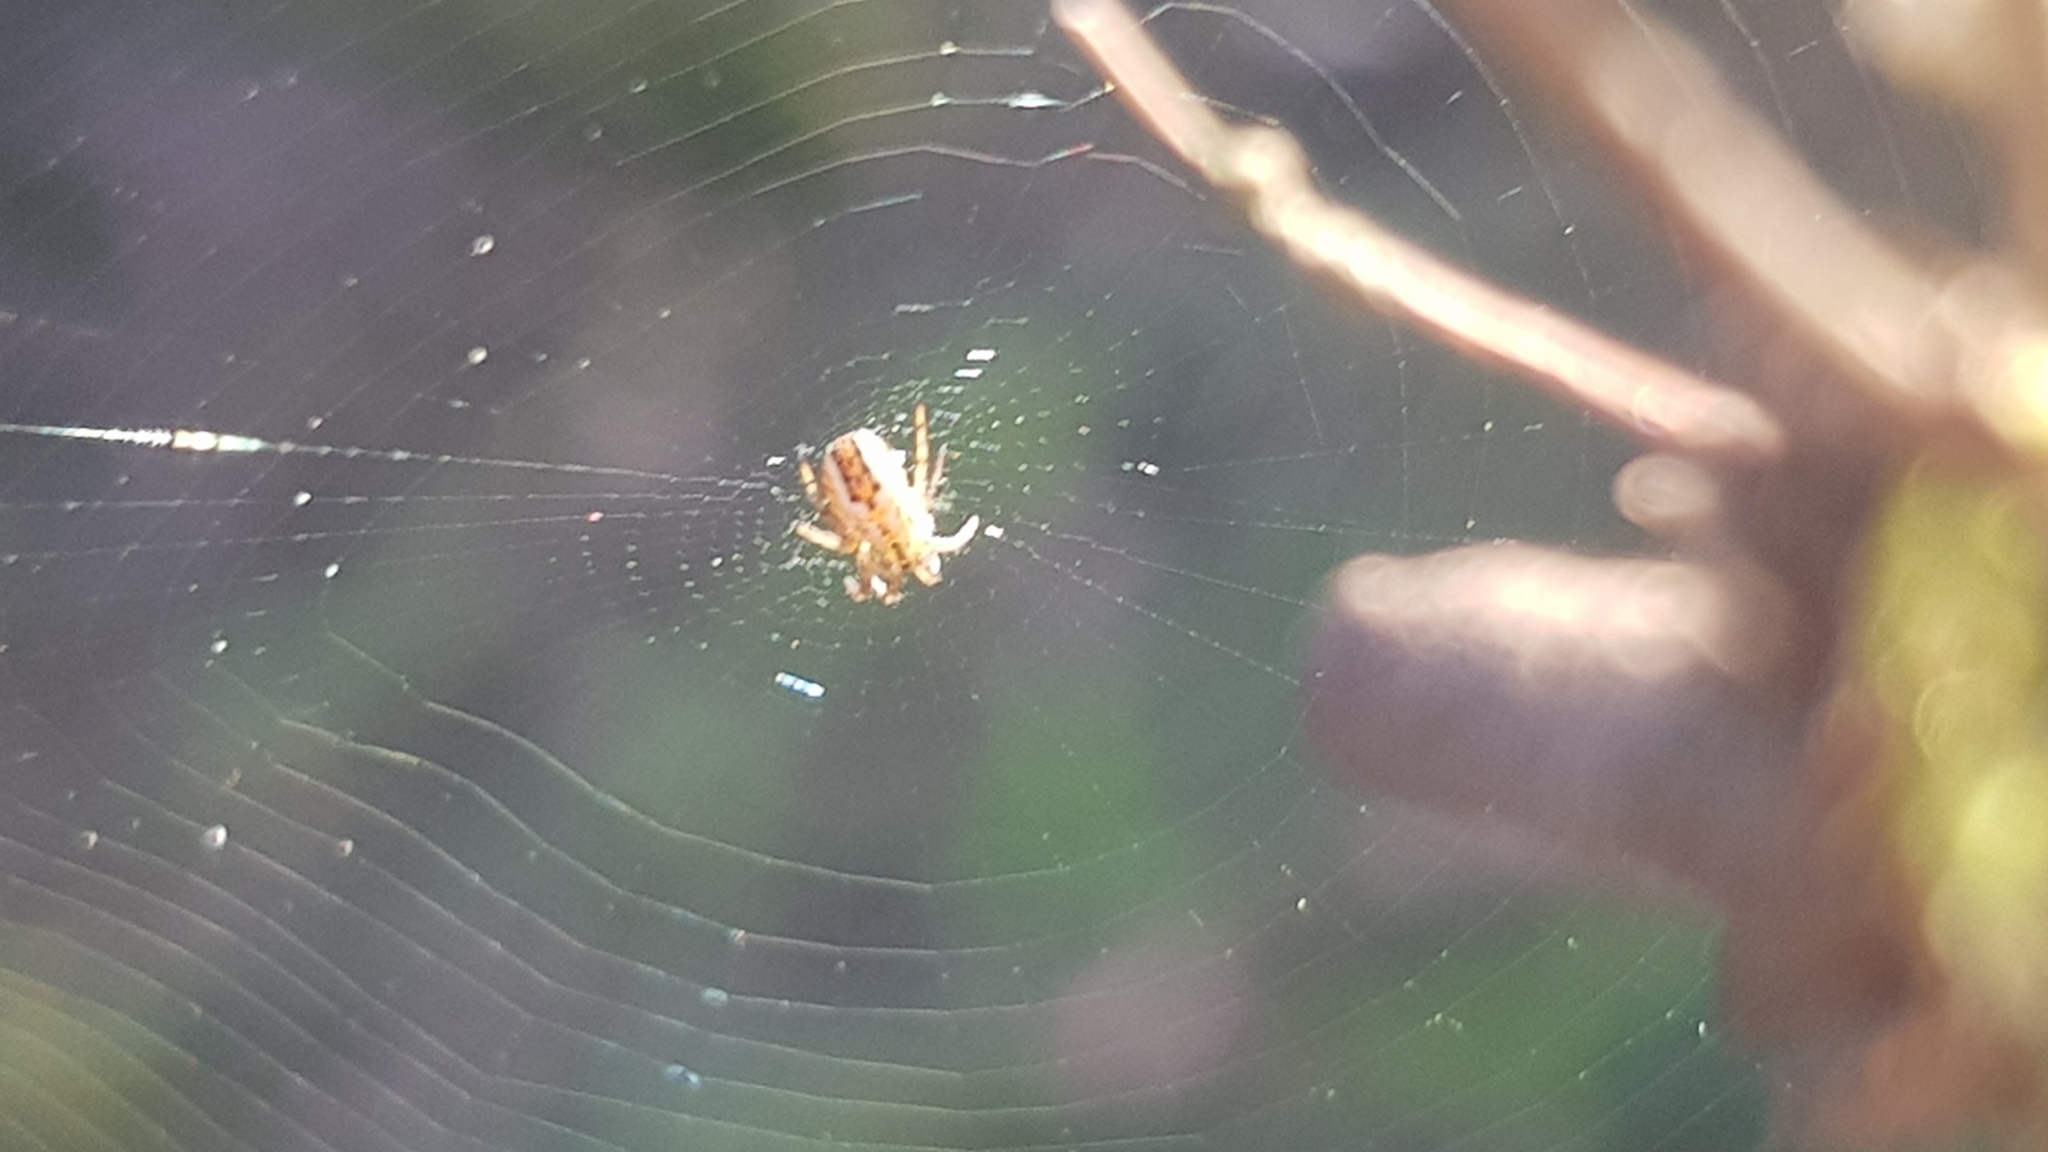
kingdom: Animalia
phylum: Arthropoda
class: Arachnida
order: Araneae
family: Araneidae
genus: Mangora
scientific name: Mangora acalypha
